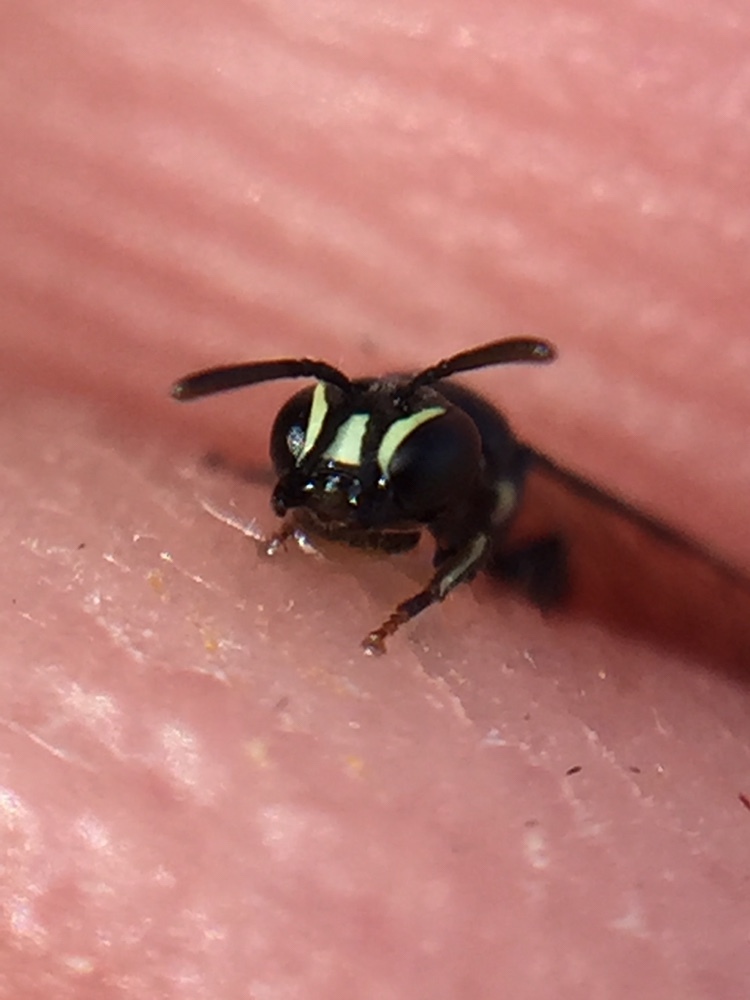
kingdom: Animalia
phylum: Arthropoda
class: Insecta
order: Hymenoptera
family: Colletidae
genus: Hylaeus
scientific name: Hylaeus perhumilis
